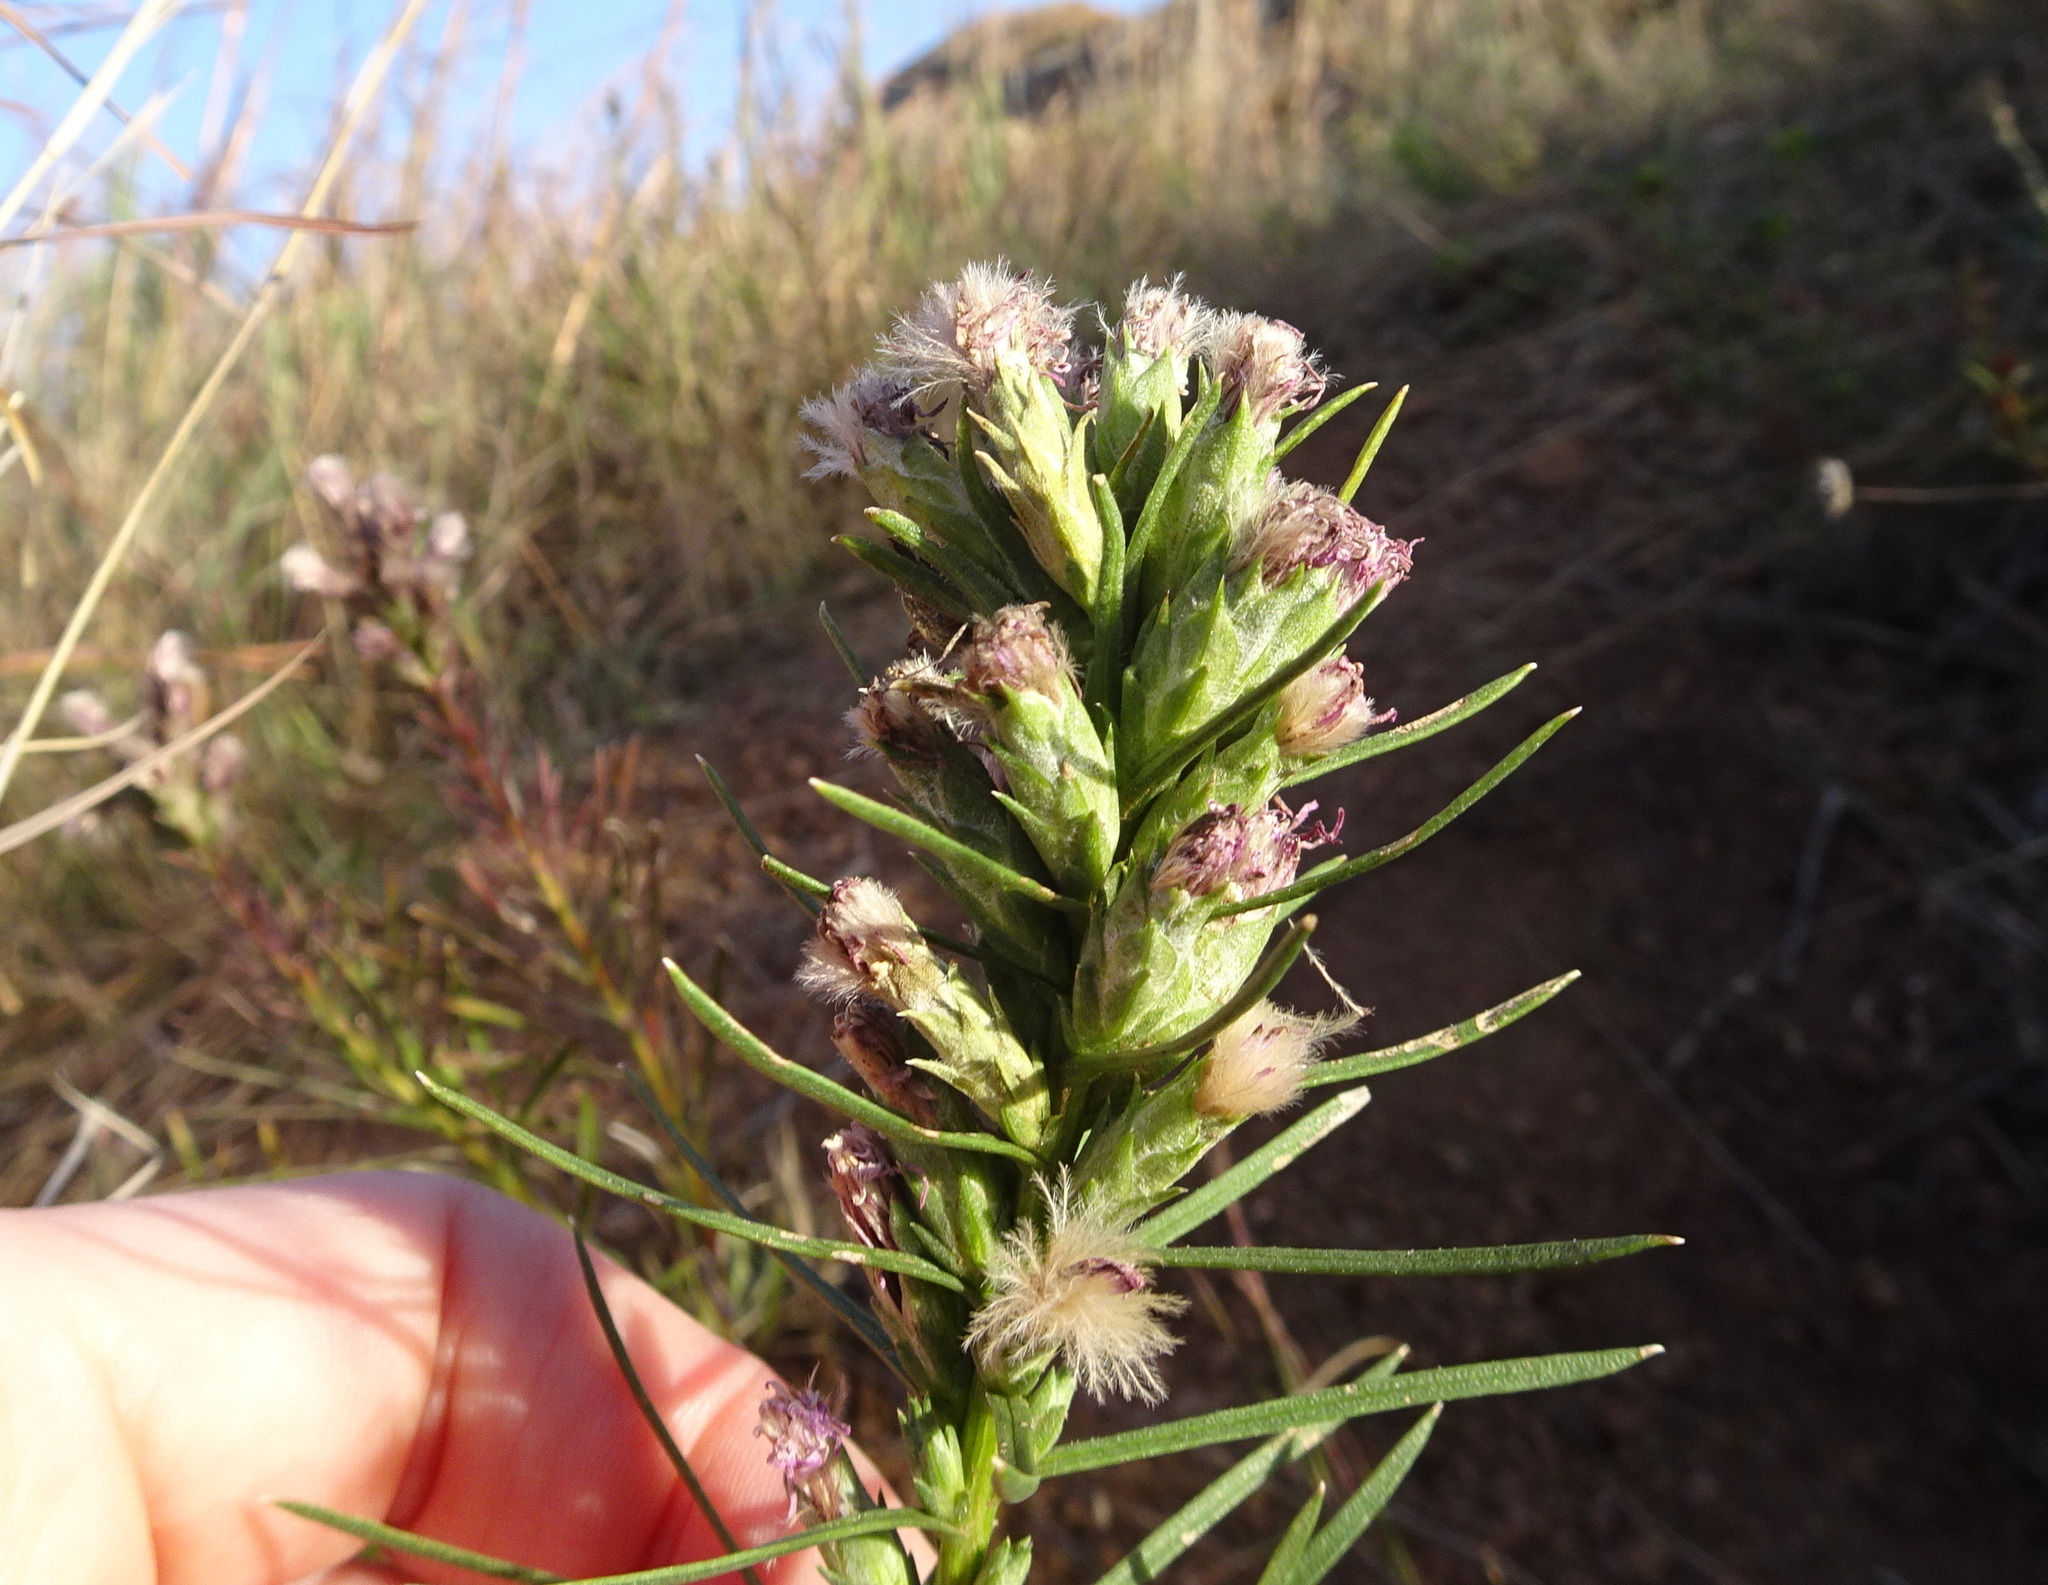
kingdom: Plantae
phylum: Tracheophyta
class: Magnoliopsida
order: Asterales
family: Asteraceae
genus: Liatris
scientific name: Liatris punctata
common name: Dotted gayfeather
